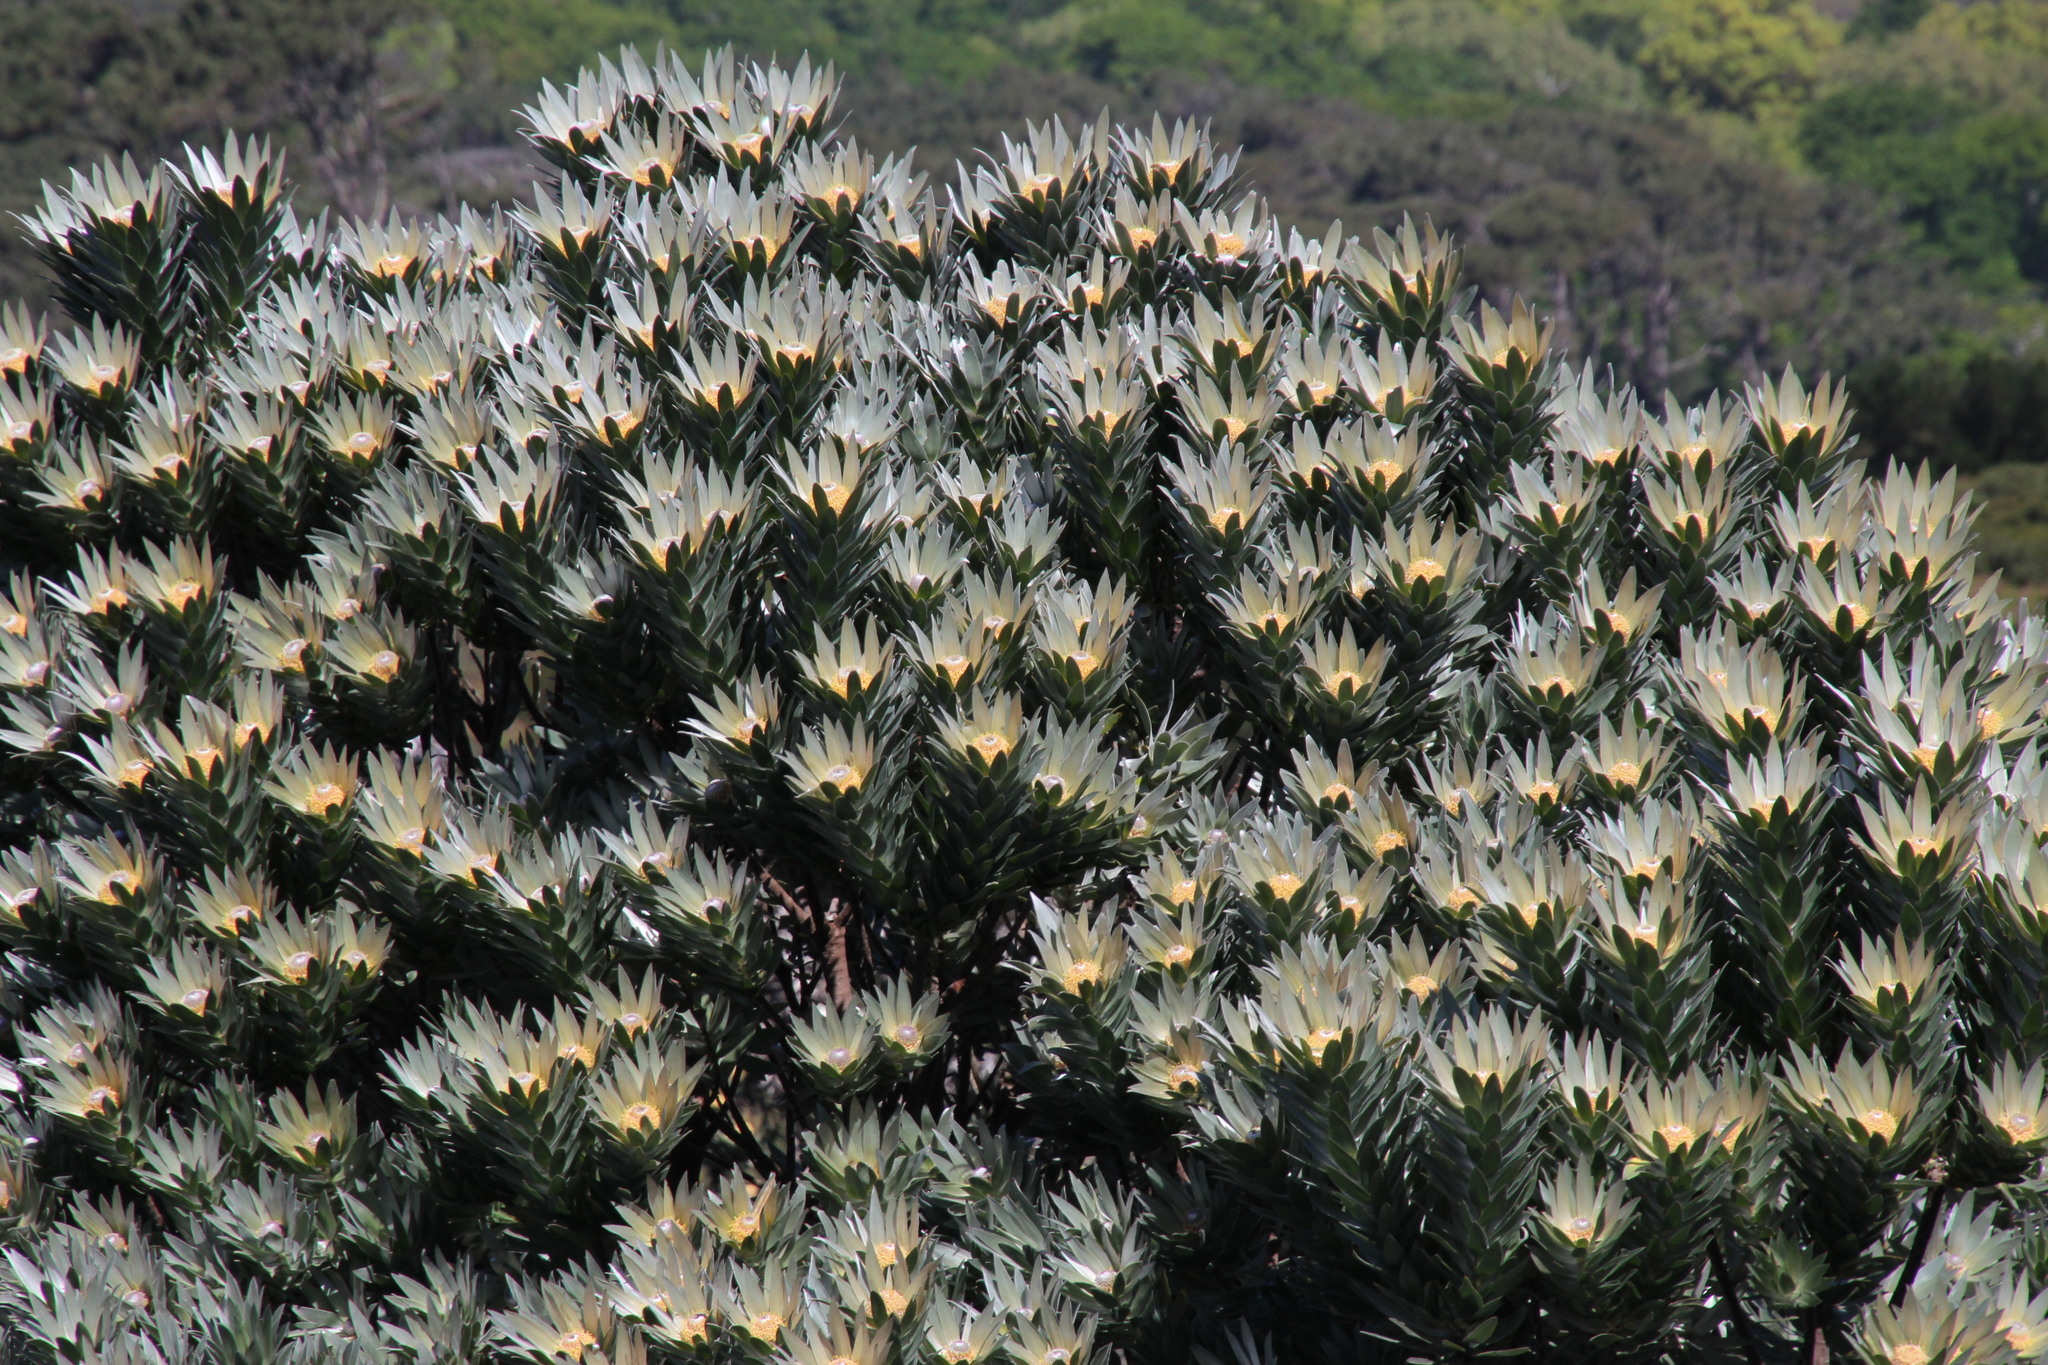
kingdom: Plantae
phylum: Tracheophyta
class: Magnoliopsida
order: Proteales
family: Proteaceae
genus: Leucadendron
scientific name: Leucadendron argenteum
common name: Cape silver tree
